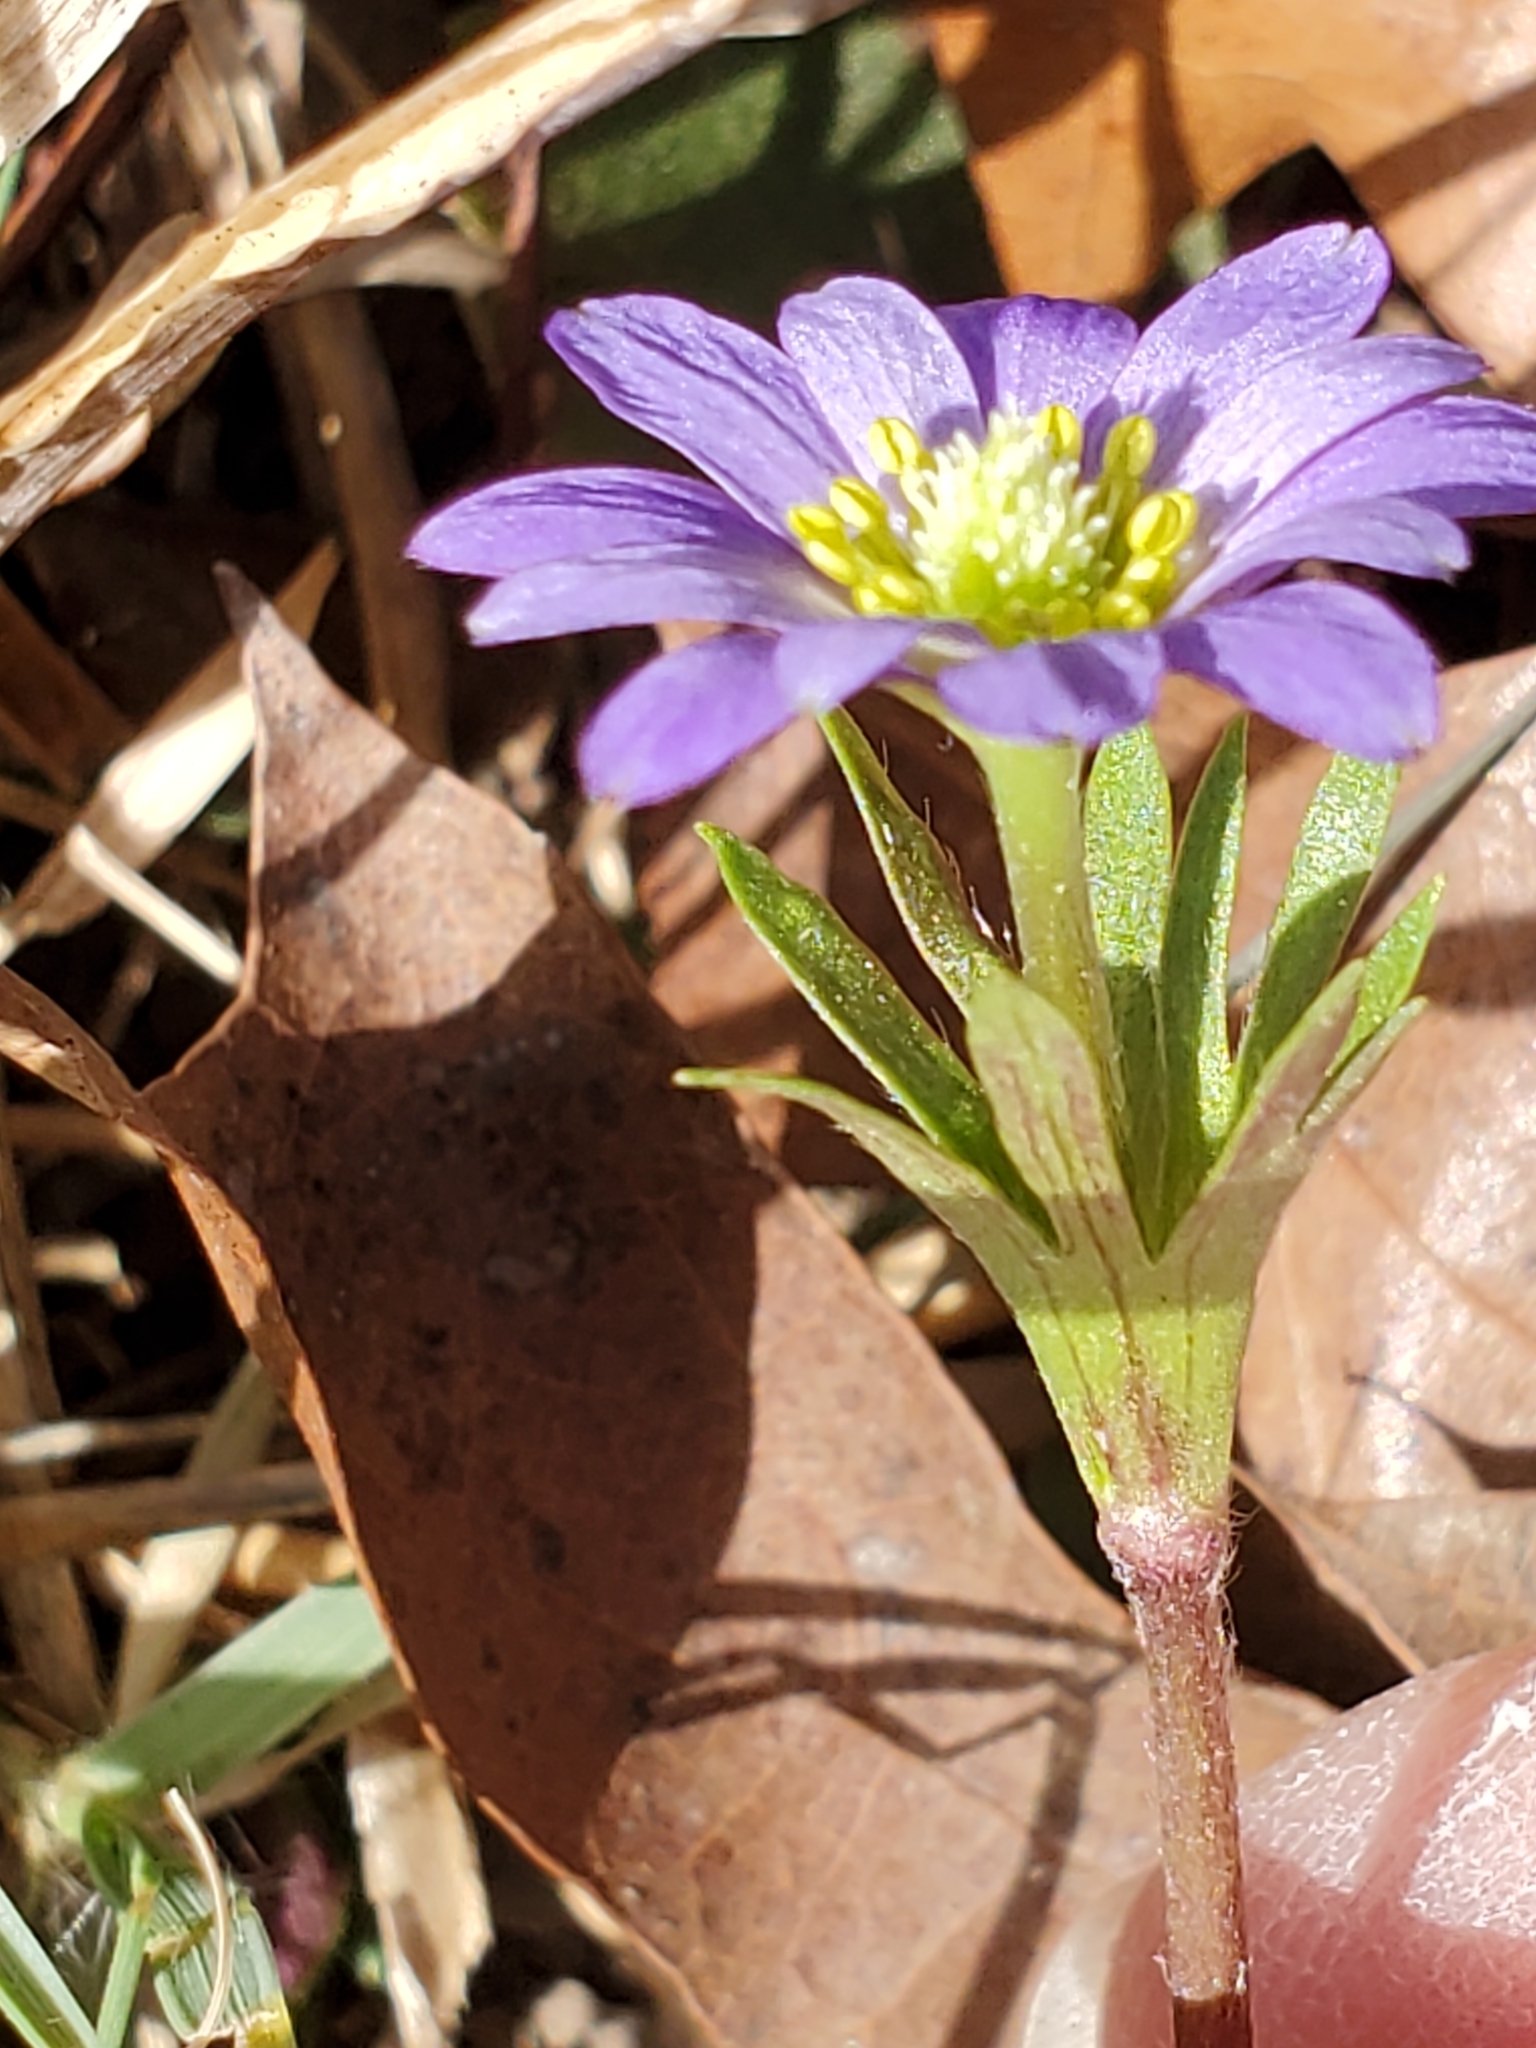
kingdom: Plantae
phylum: Tracheophyta
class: Magnoliopsida
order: Ranunculales
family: Ranunculaceae
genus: Anemone
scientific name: Anemone berlandieri
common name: Ten-petal anemone
